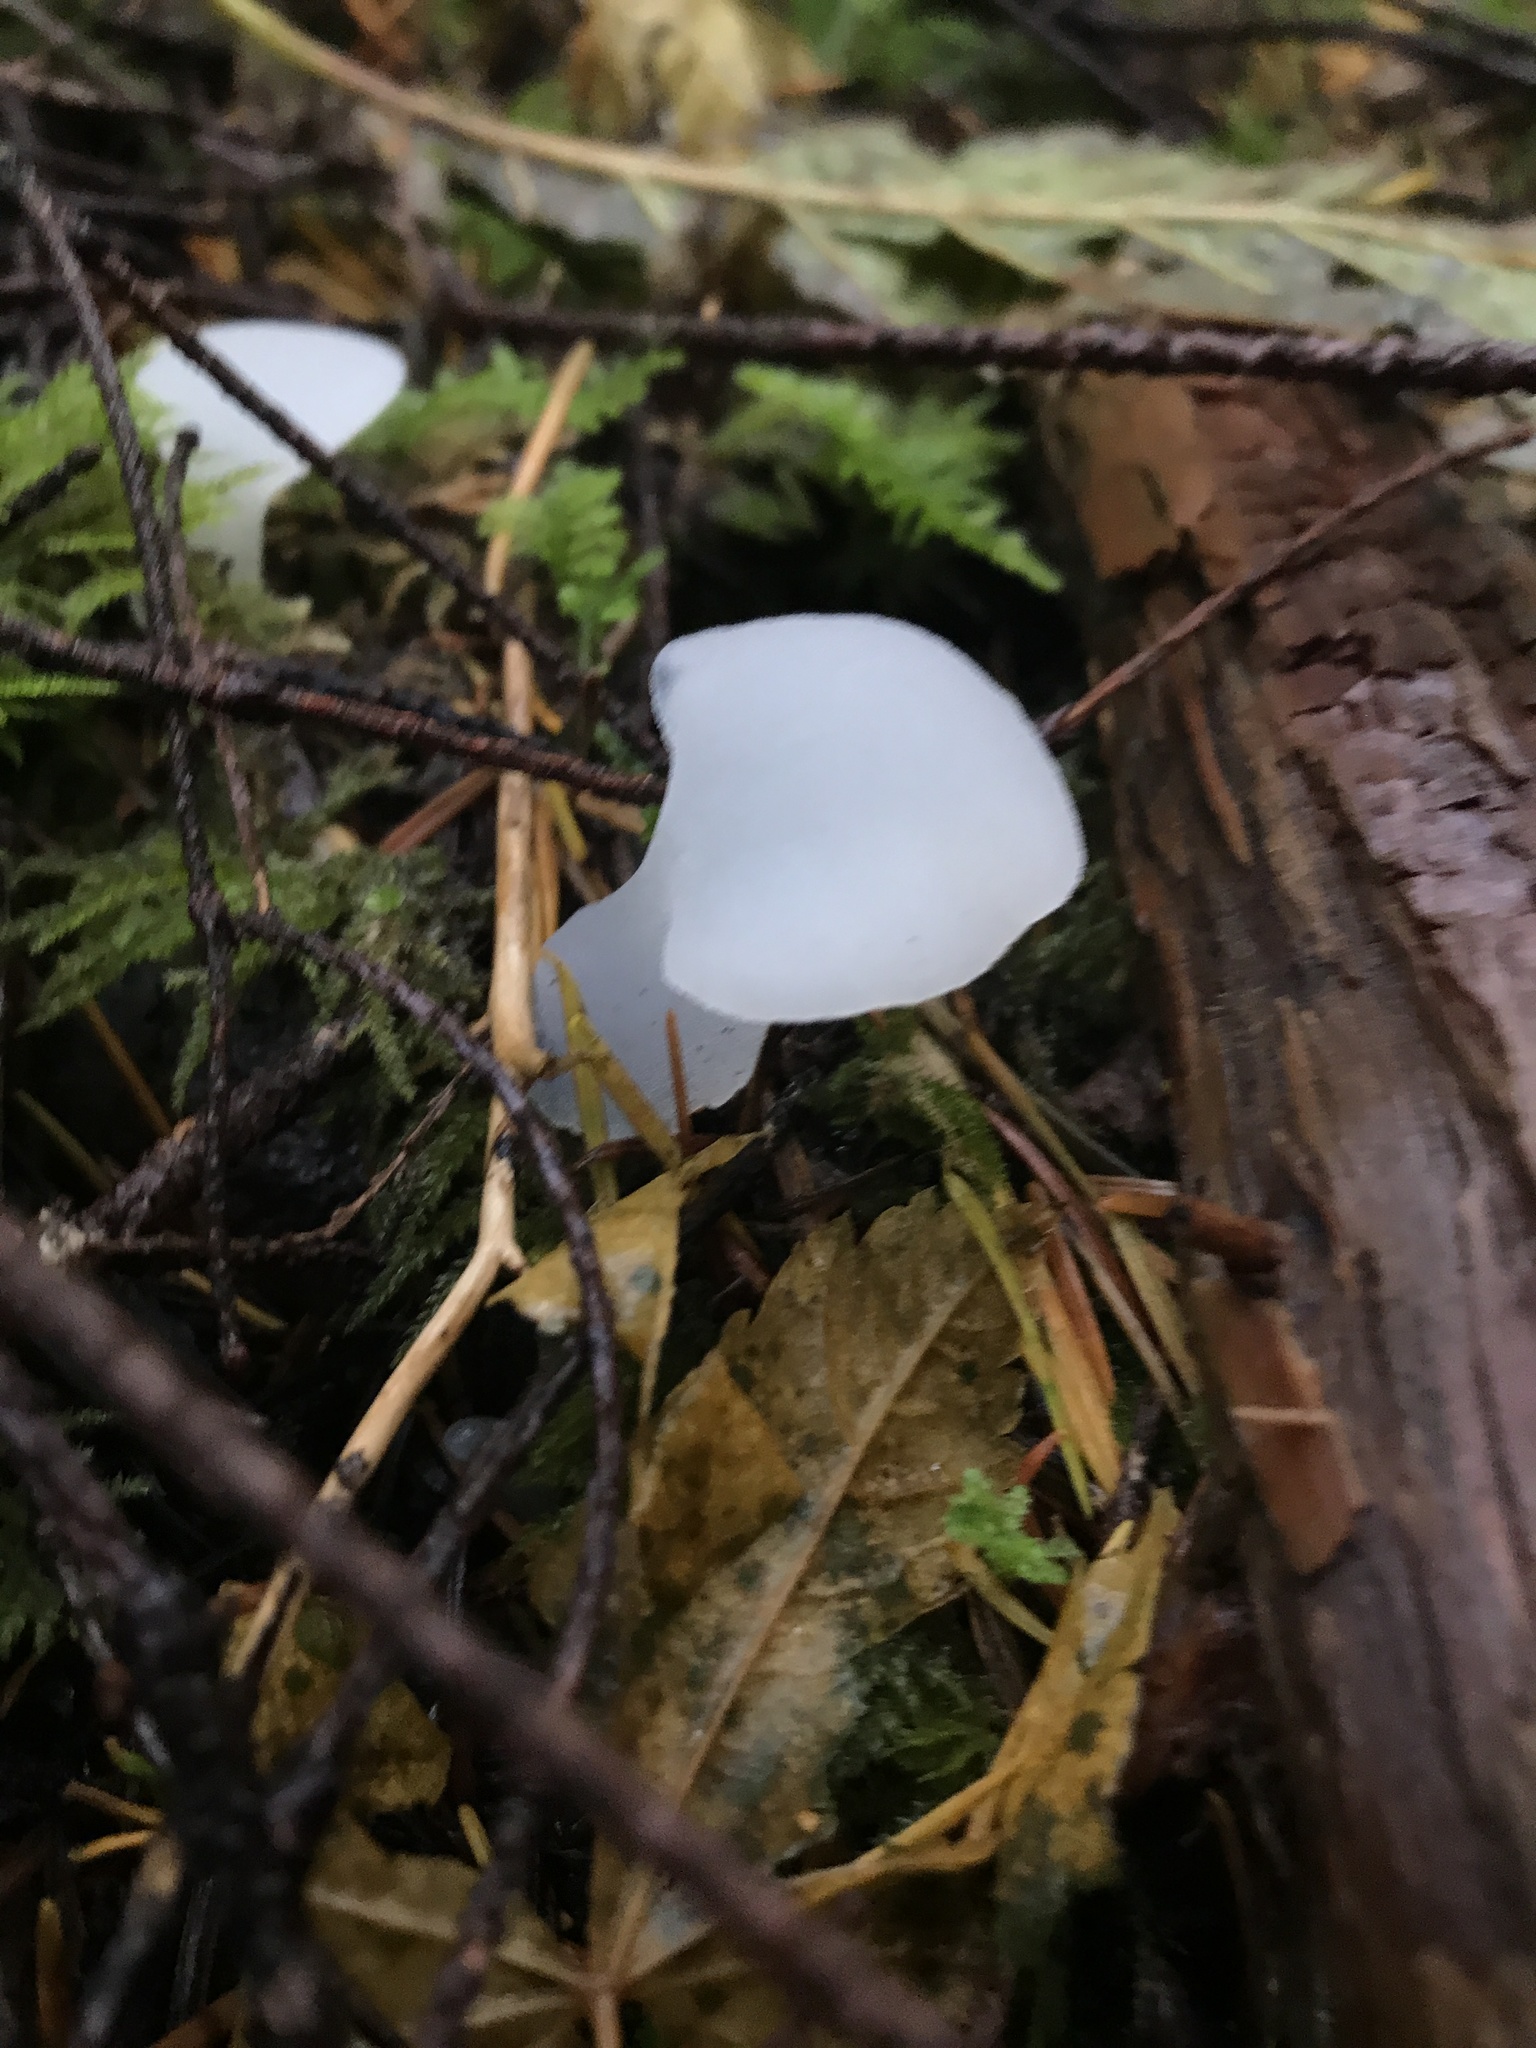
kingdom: Fungi
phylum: Basidiomycota
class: Agaricomycetes
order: Auriculariales
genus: Pseudohydnum
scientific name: Pseudohydnum gelatinosum
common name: Jelly tongue
